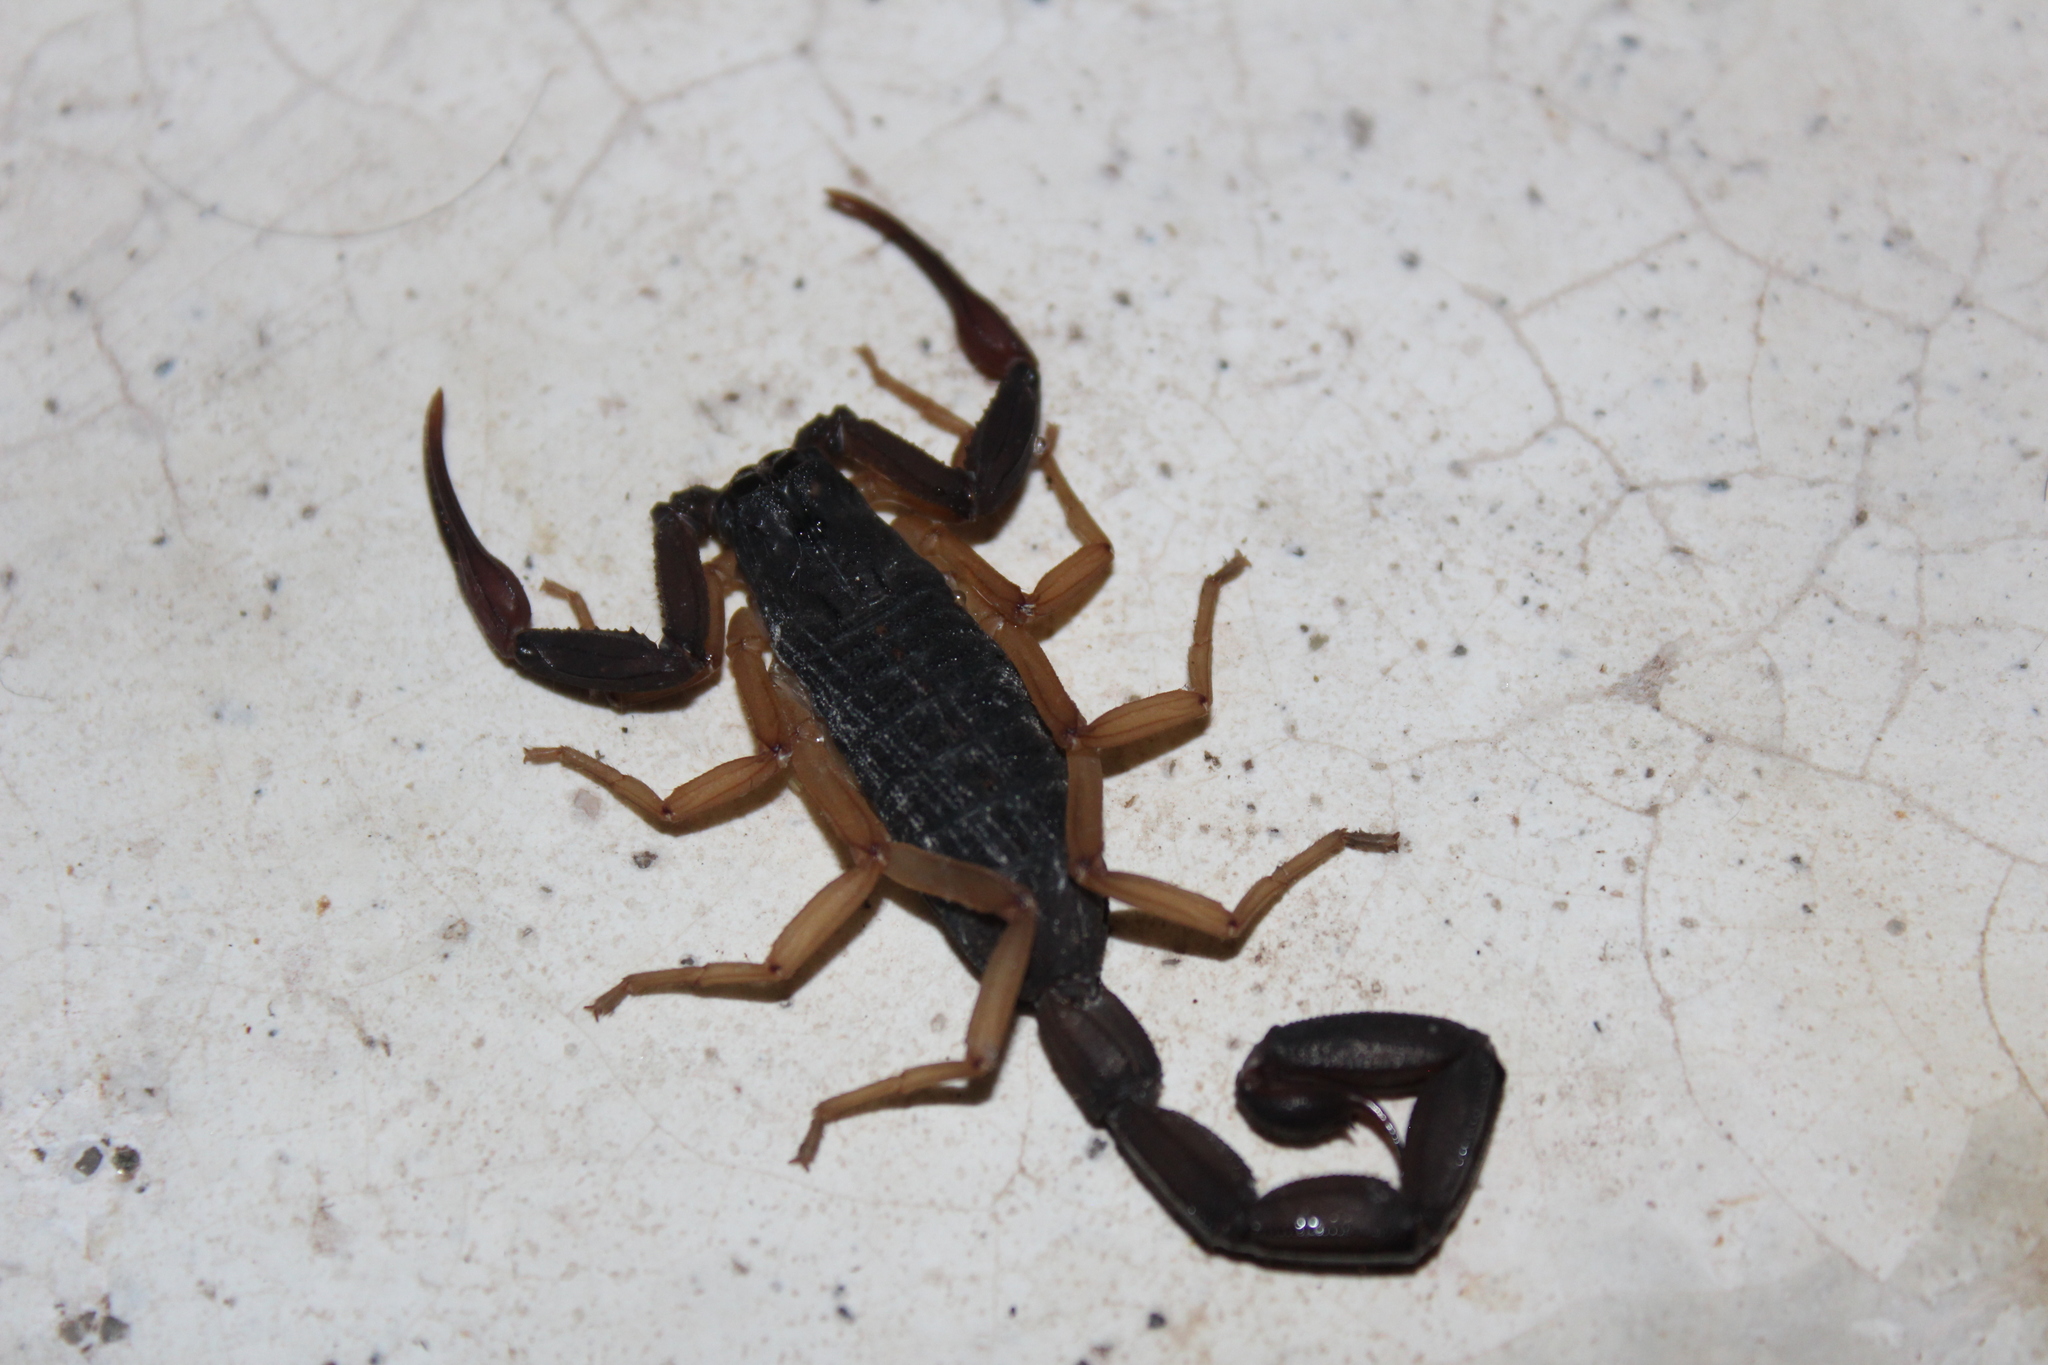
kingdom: Animalia
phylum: Arthropoda
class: Arachnida
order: Scorpiones
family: Buthidae
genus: Centruroides
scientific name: Centruroides gracilis
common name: Scorpions
